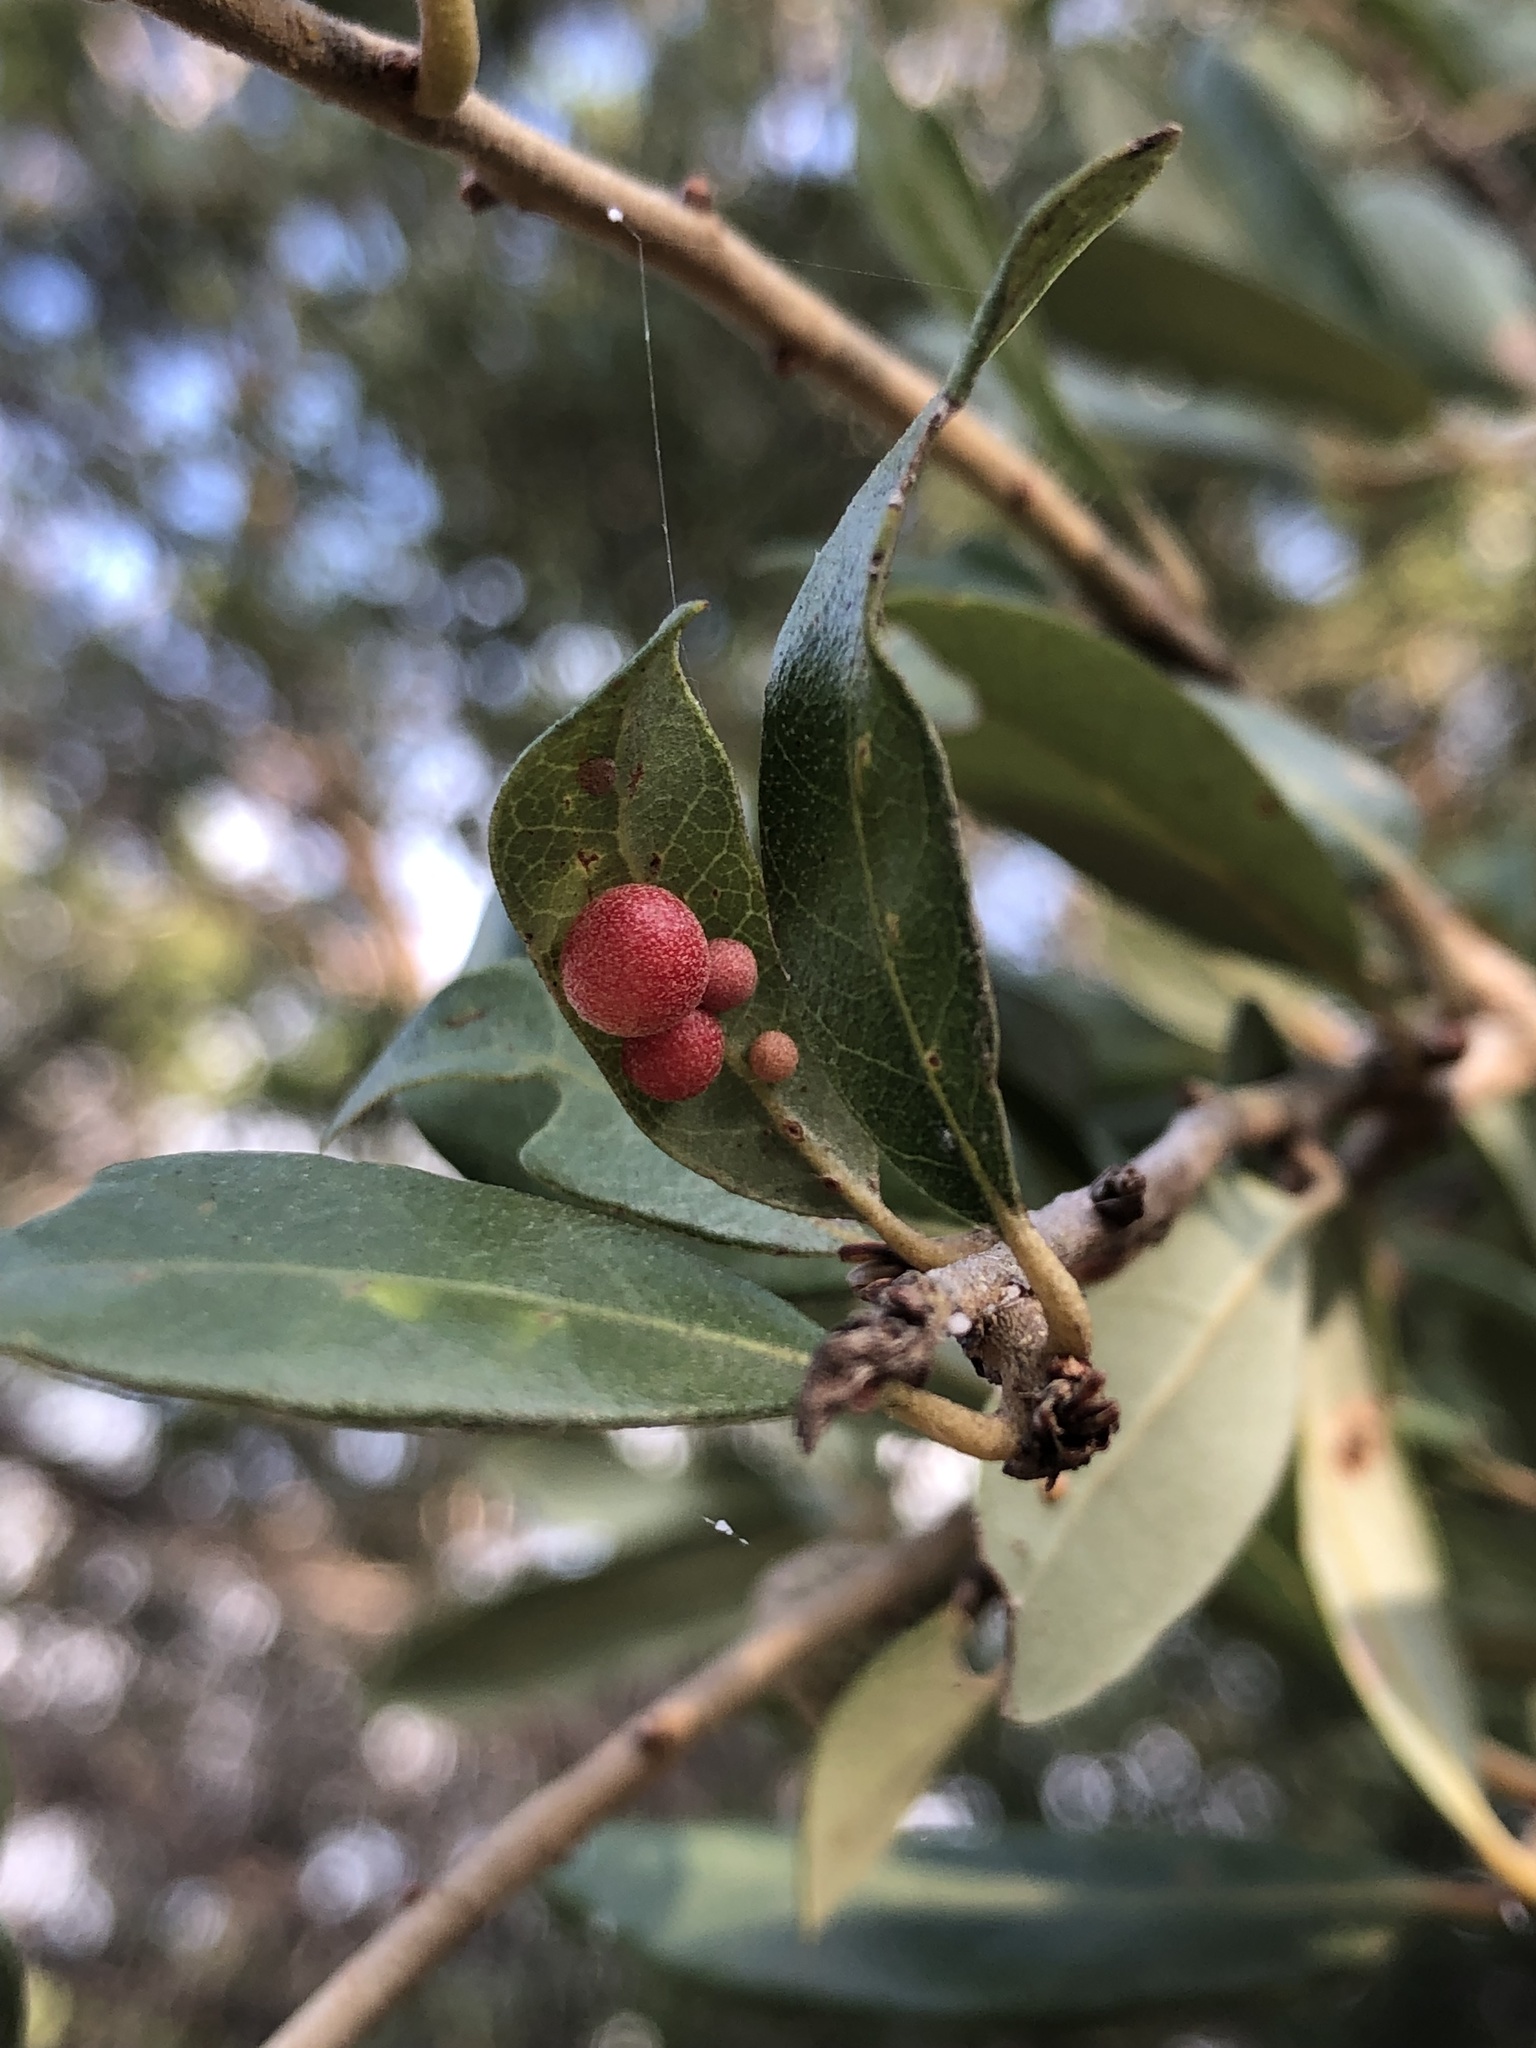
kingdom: Animalia
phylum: Arthropoda
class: Insecta
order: Hymenoptera
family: Cynipidae
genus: Belonocnema
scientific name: Belonocnema kinseyi
